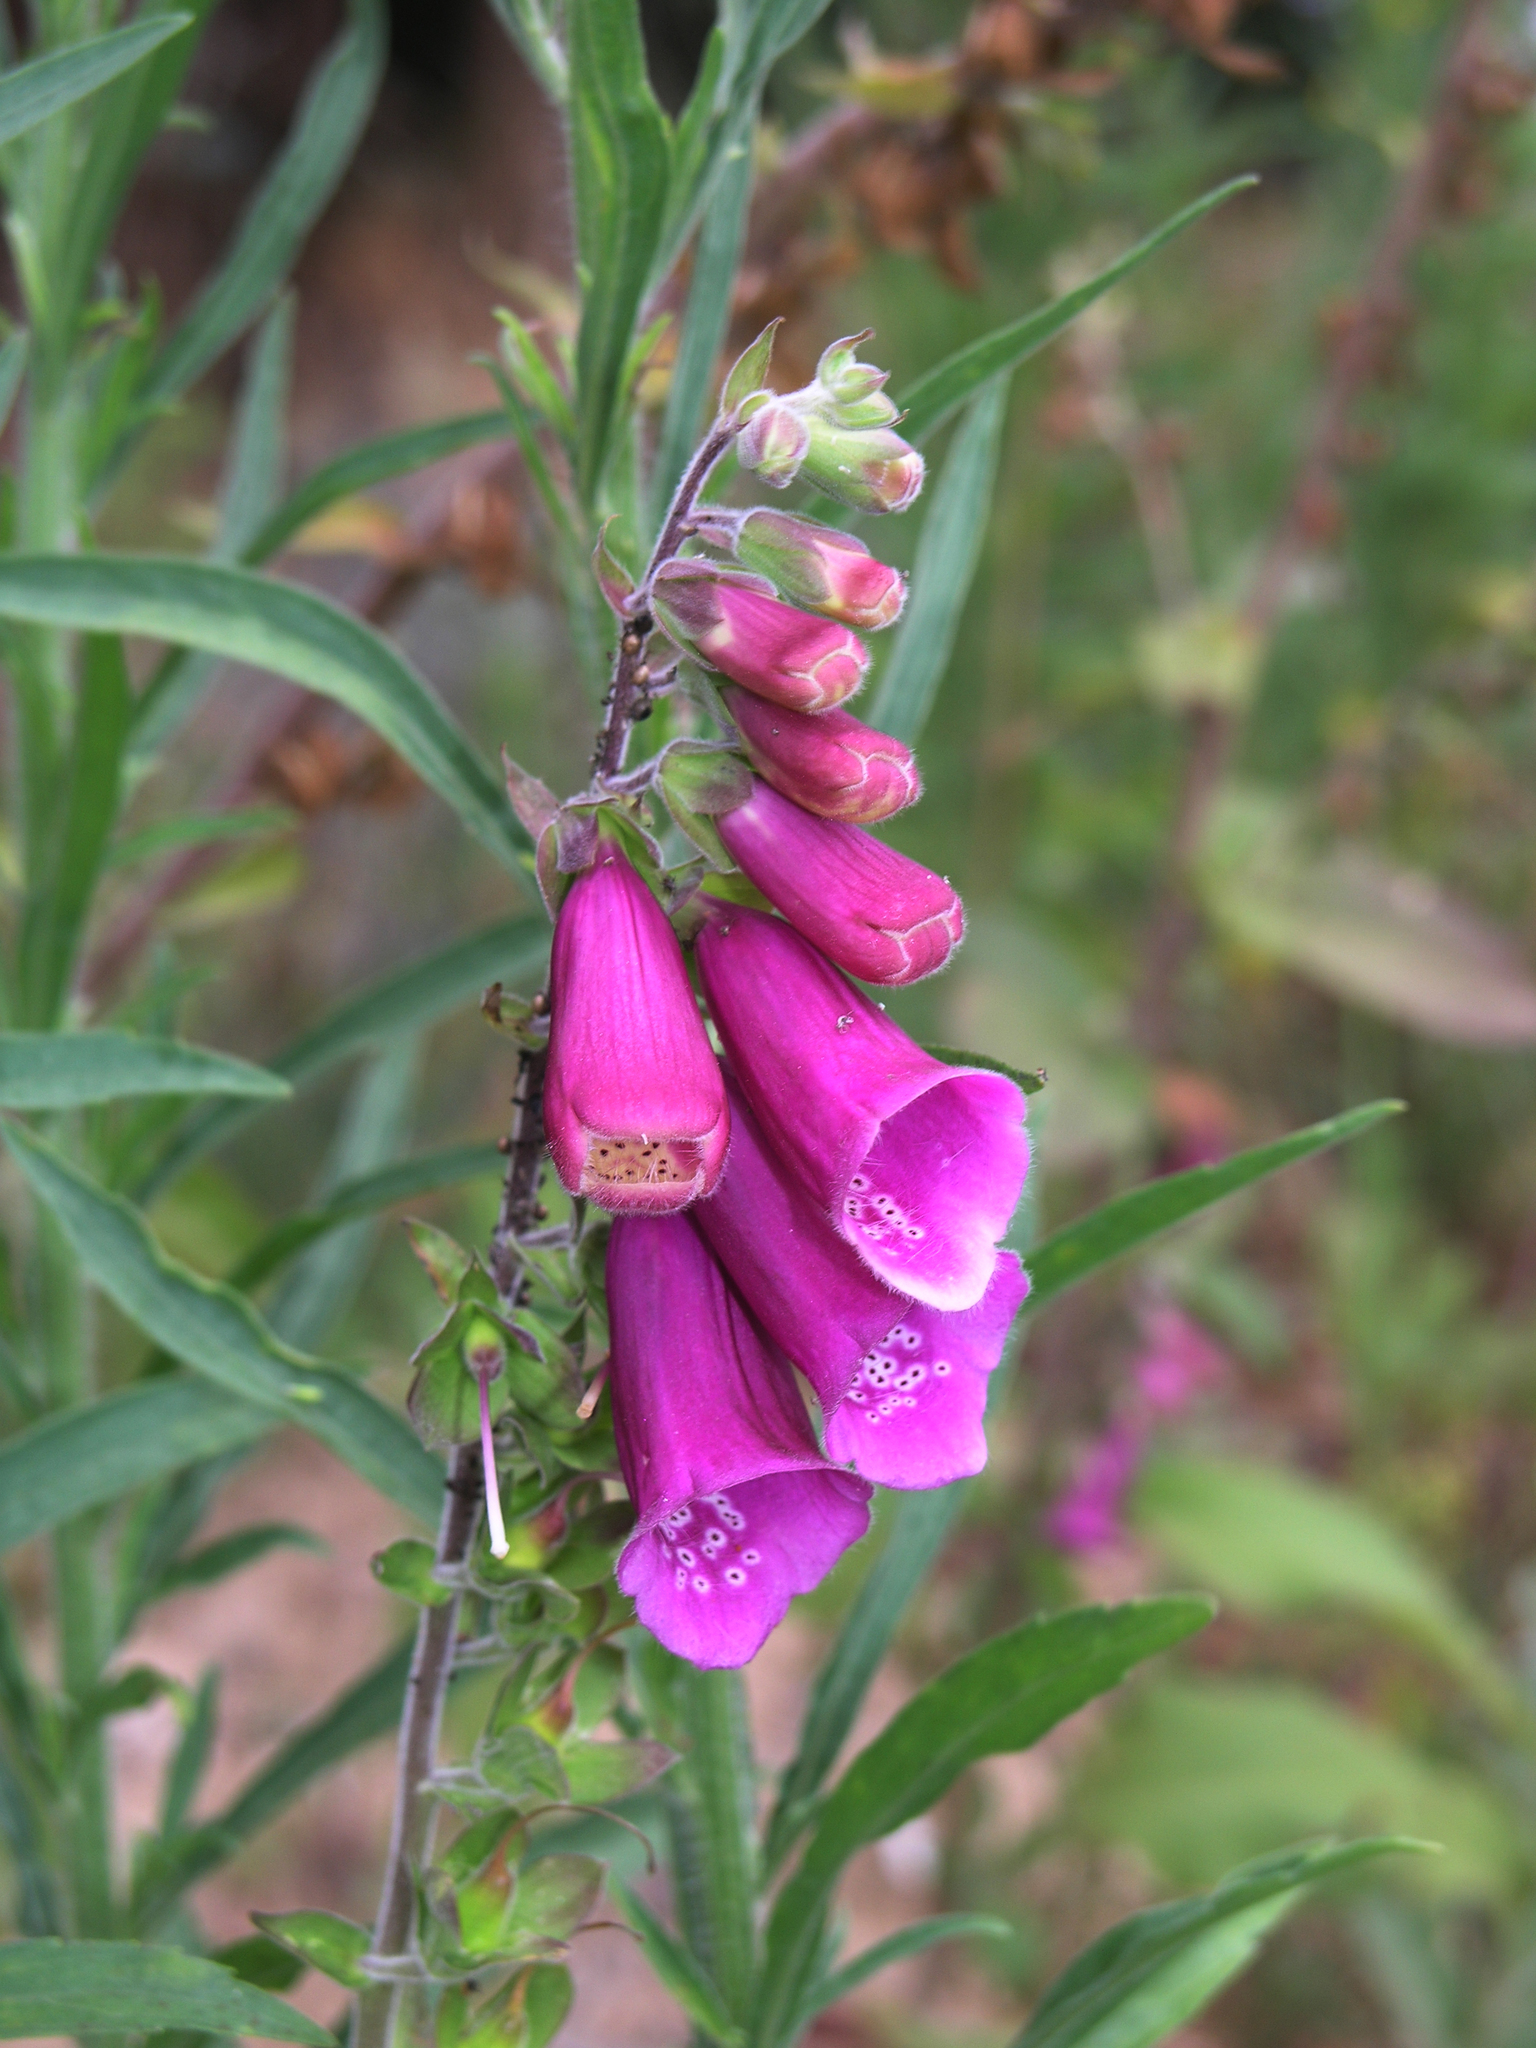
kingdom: Plantae
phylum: Tracheophyta
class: Magnoliopsida
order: Lamiales
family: Plantaginaceae
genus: Digitalis
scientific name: Digitalis purpurea
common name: Foxglove
